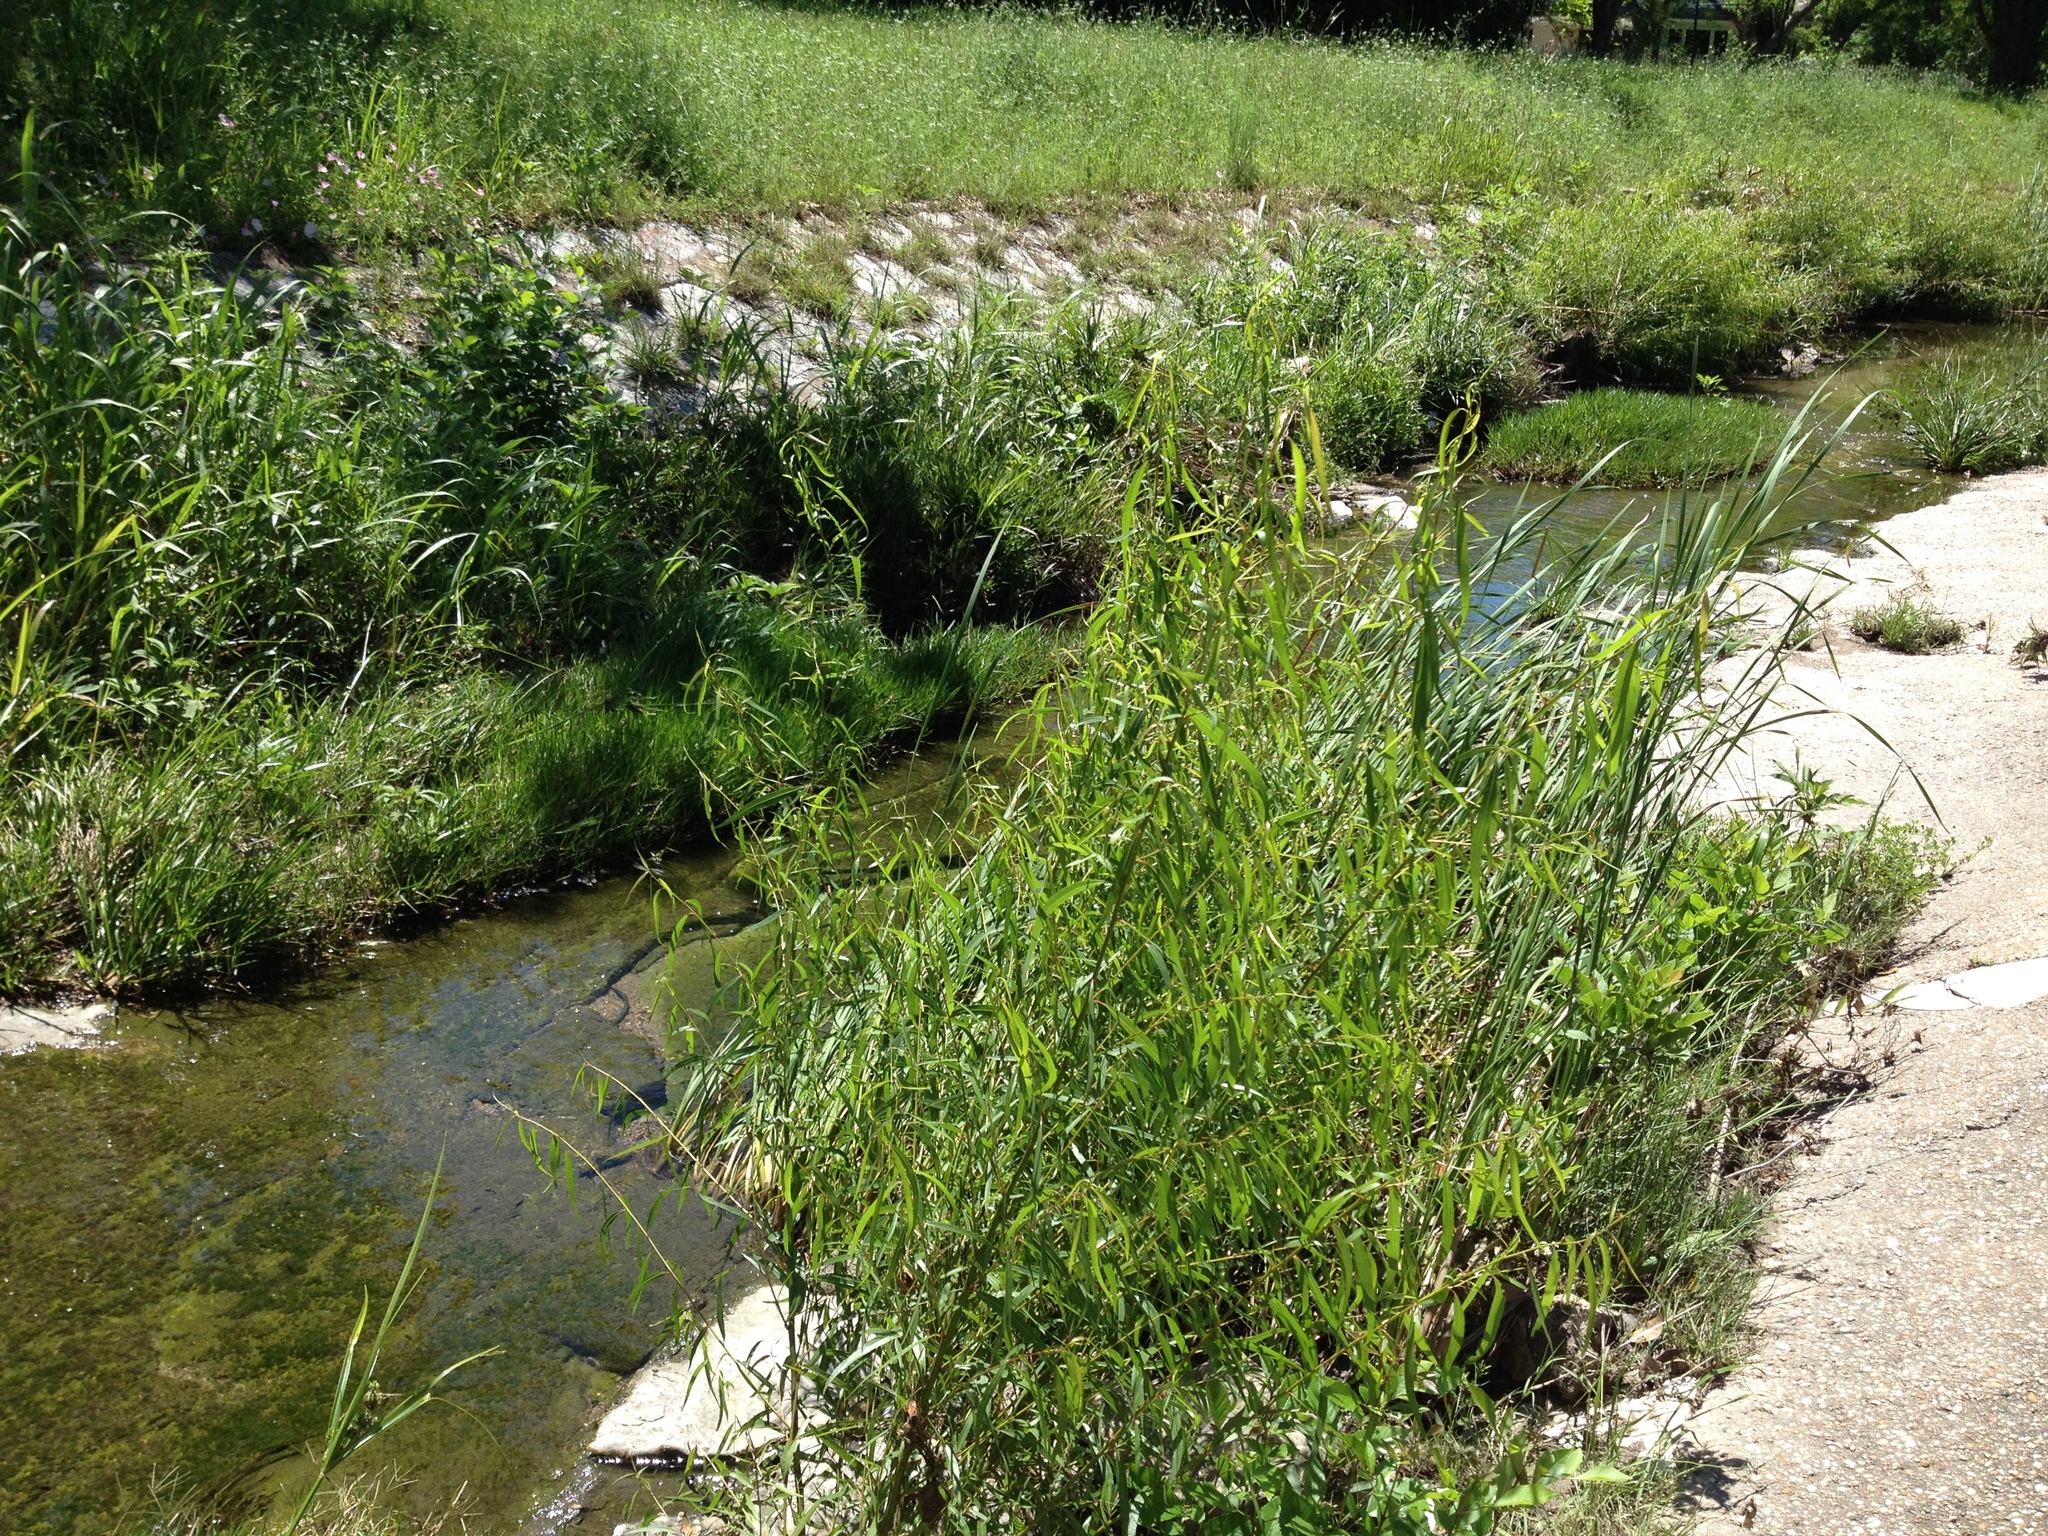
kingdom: Plantae
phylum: Tracheophyta
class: Magnoliopsida
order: Malpighiales
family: Salicaceae
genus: Salix
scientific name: Salix nigra
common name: Black willow
